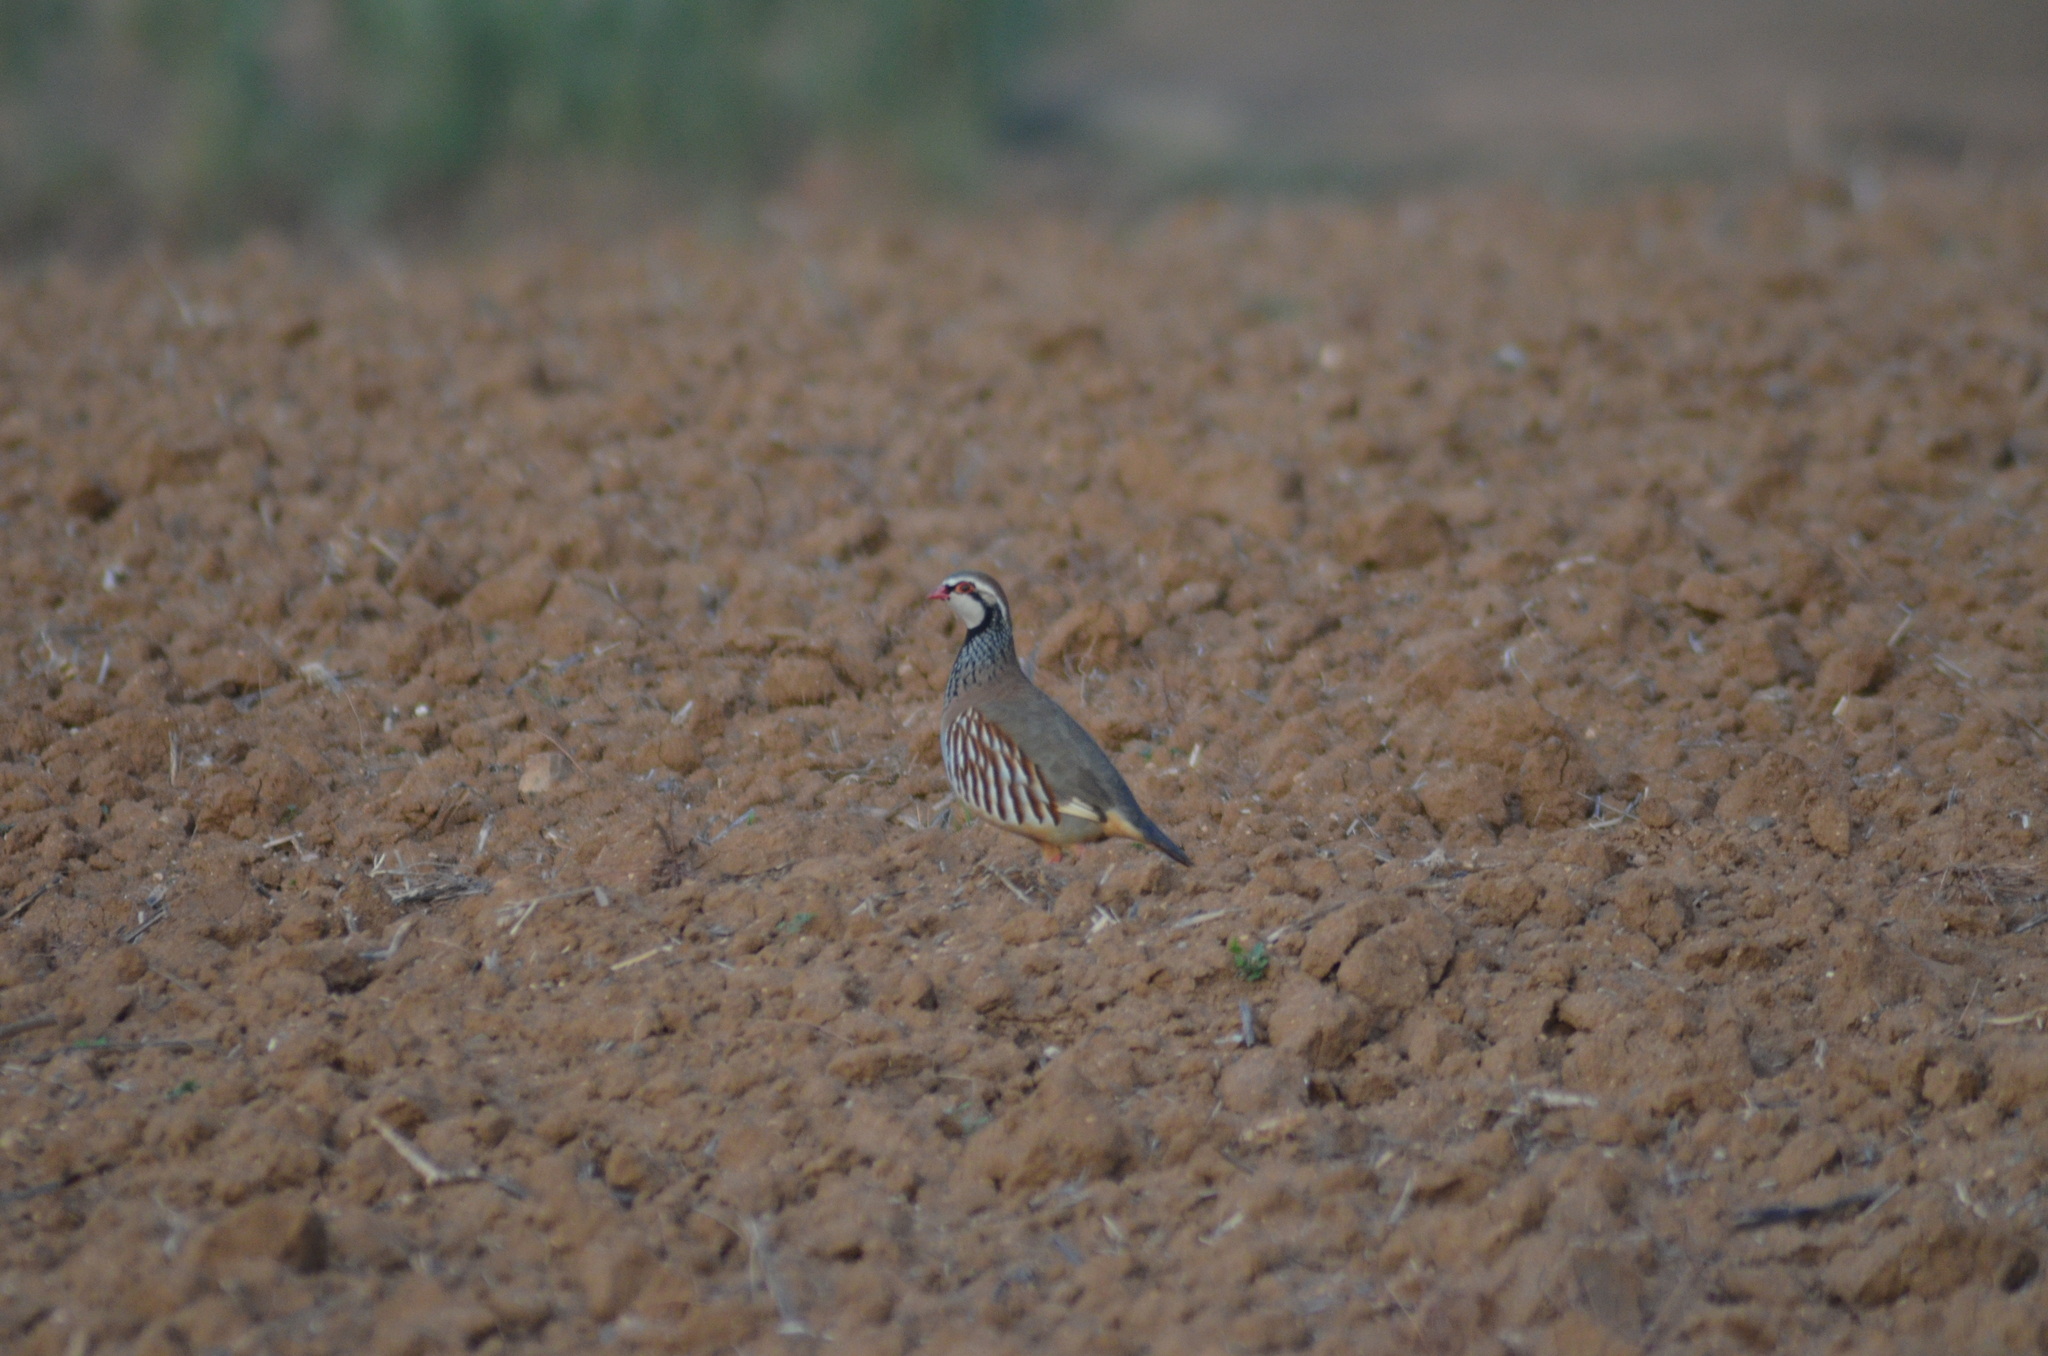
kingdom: Animalia
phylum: Chordata
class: Aves
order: Galliformes
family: Phasianidae
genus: Alectoris
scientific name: Alectoris rufa
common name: Red-legged partridge
